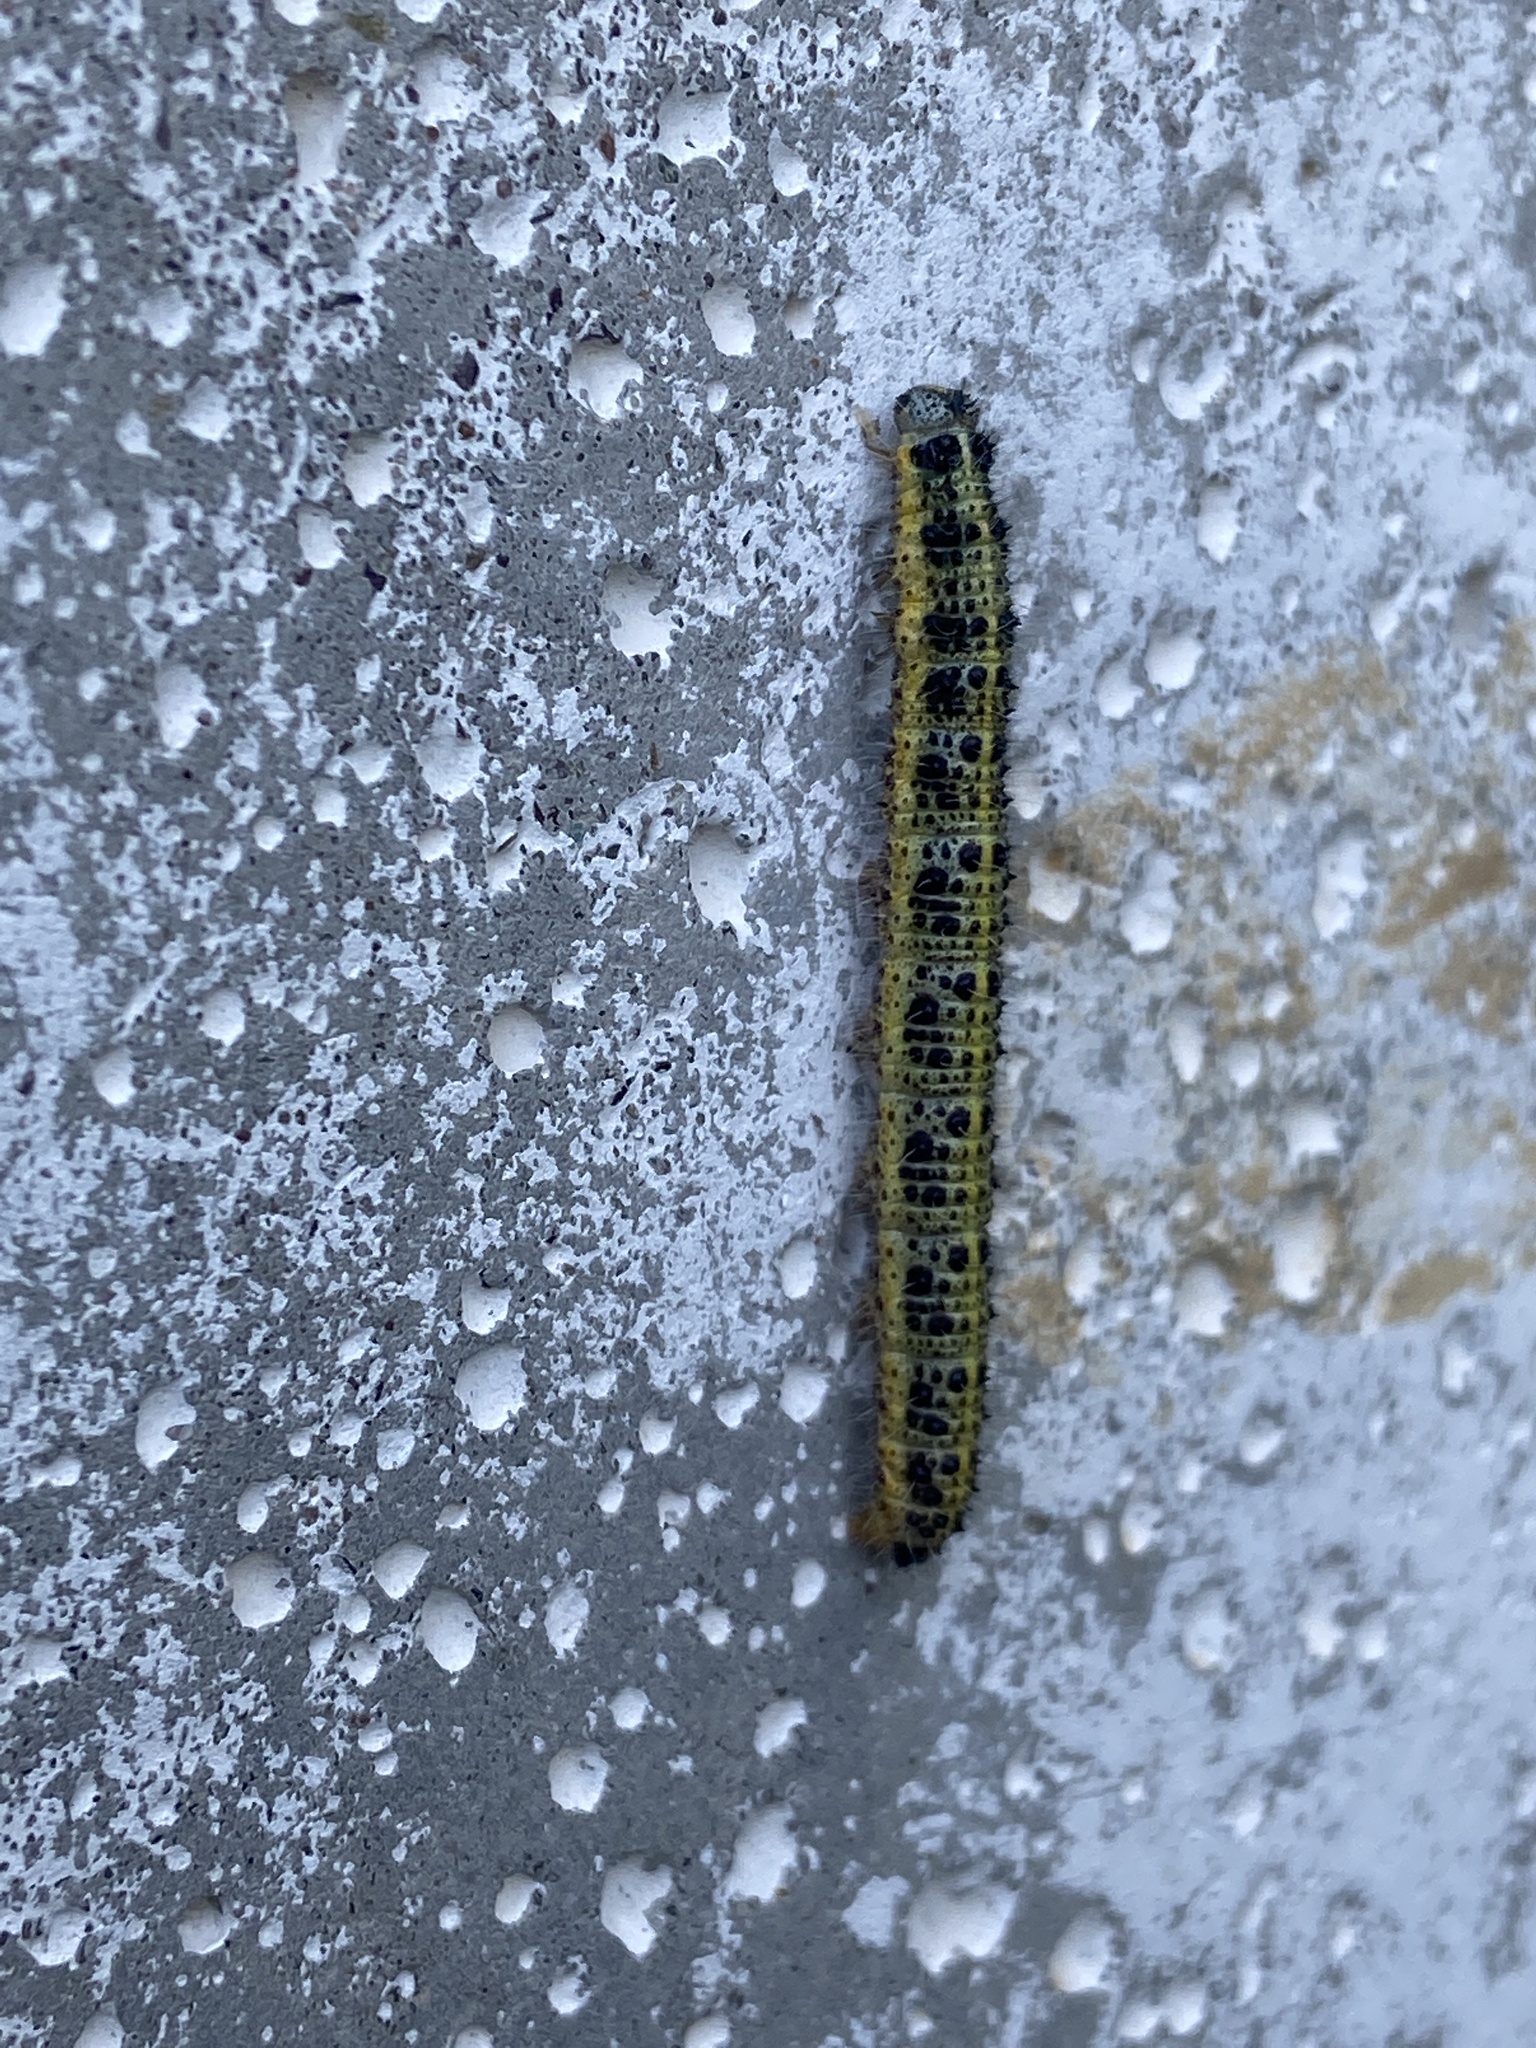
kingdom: Animalia
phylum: Arthropoda
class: Insecta
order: Lepidoptera
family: Pieridae
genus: Pieris
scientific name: Pieris brassicae
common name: Large white
